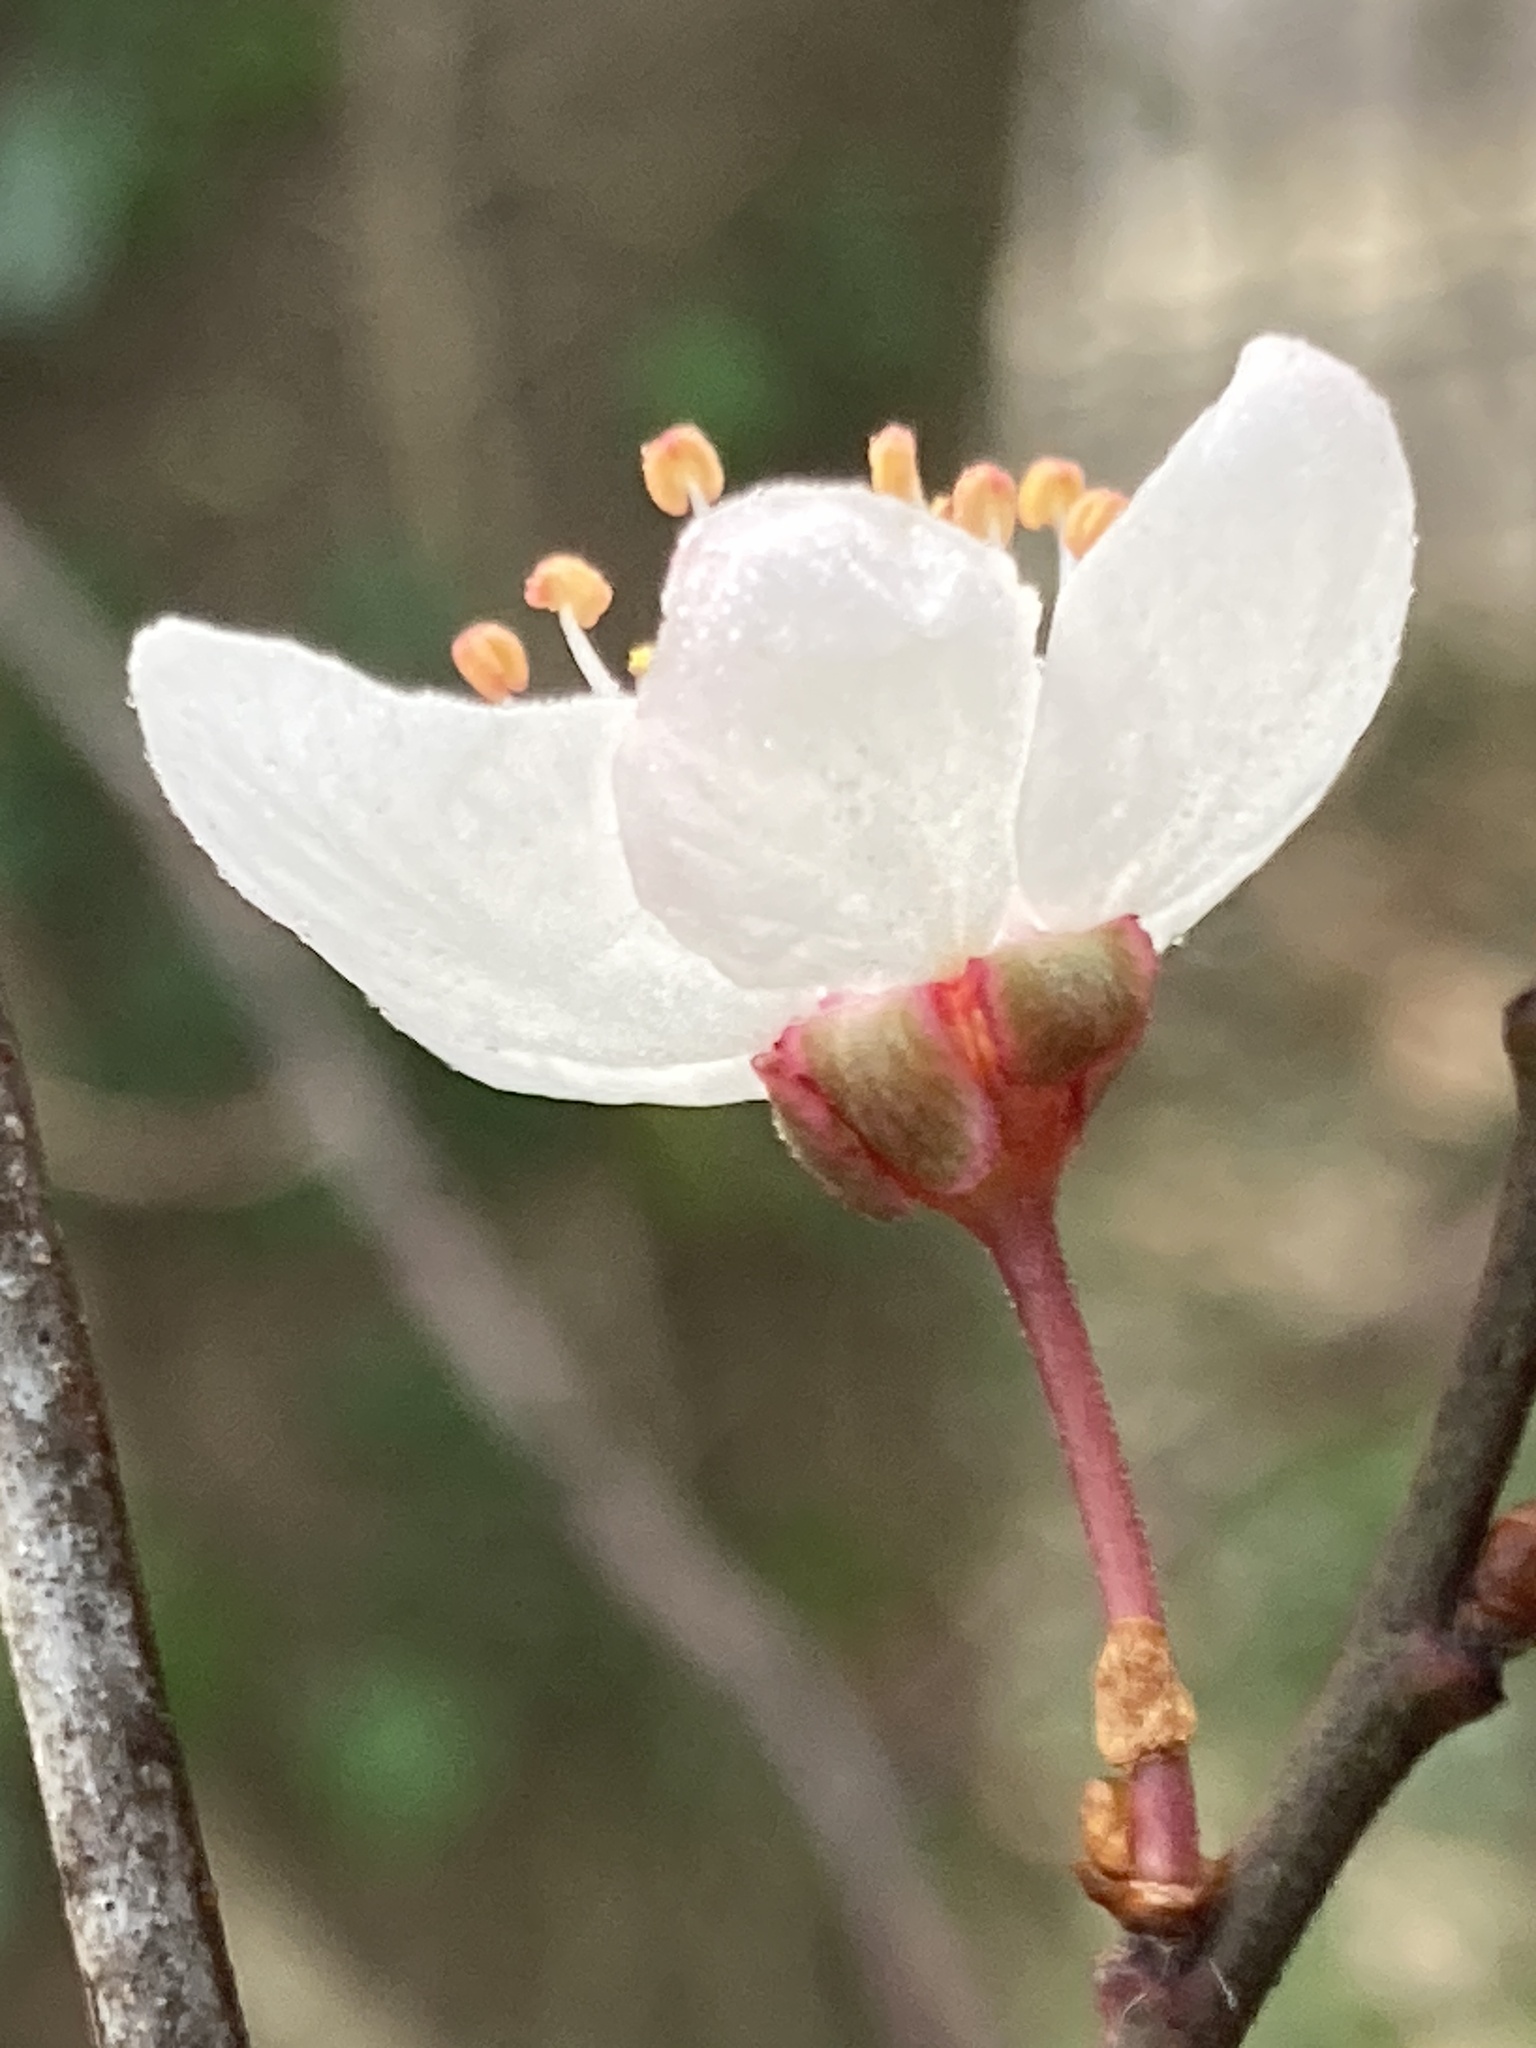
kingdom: Plantae
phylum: Tracheophyta
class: Magnoliopsida
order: Rosales
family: Rosaceae
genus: Prunus
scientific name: Prunus cerasifera
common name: Cherry plum
